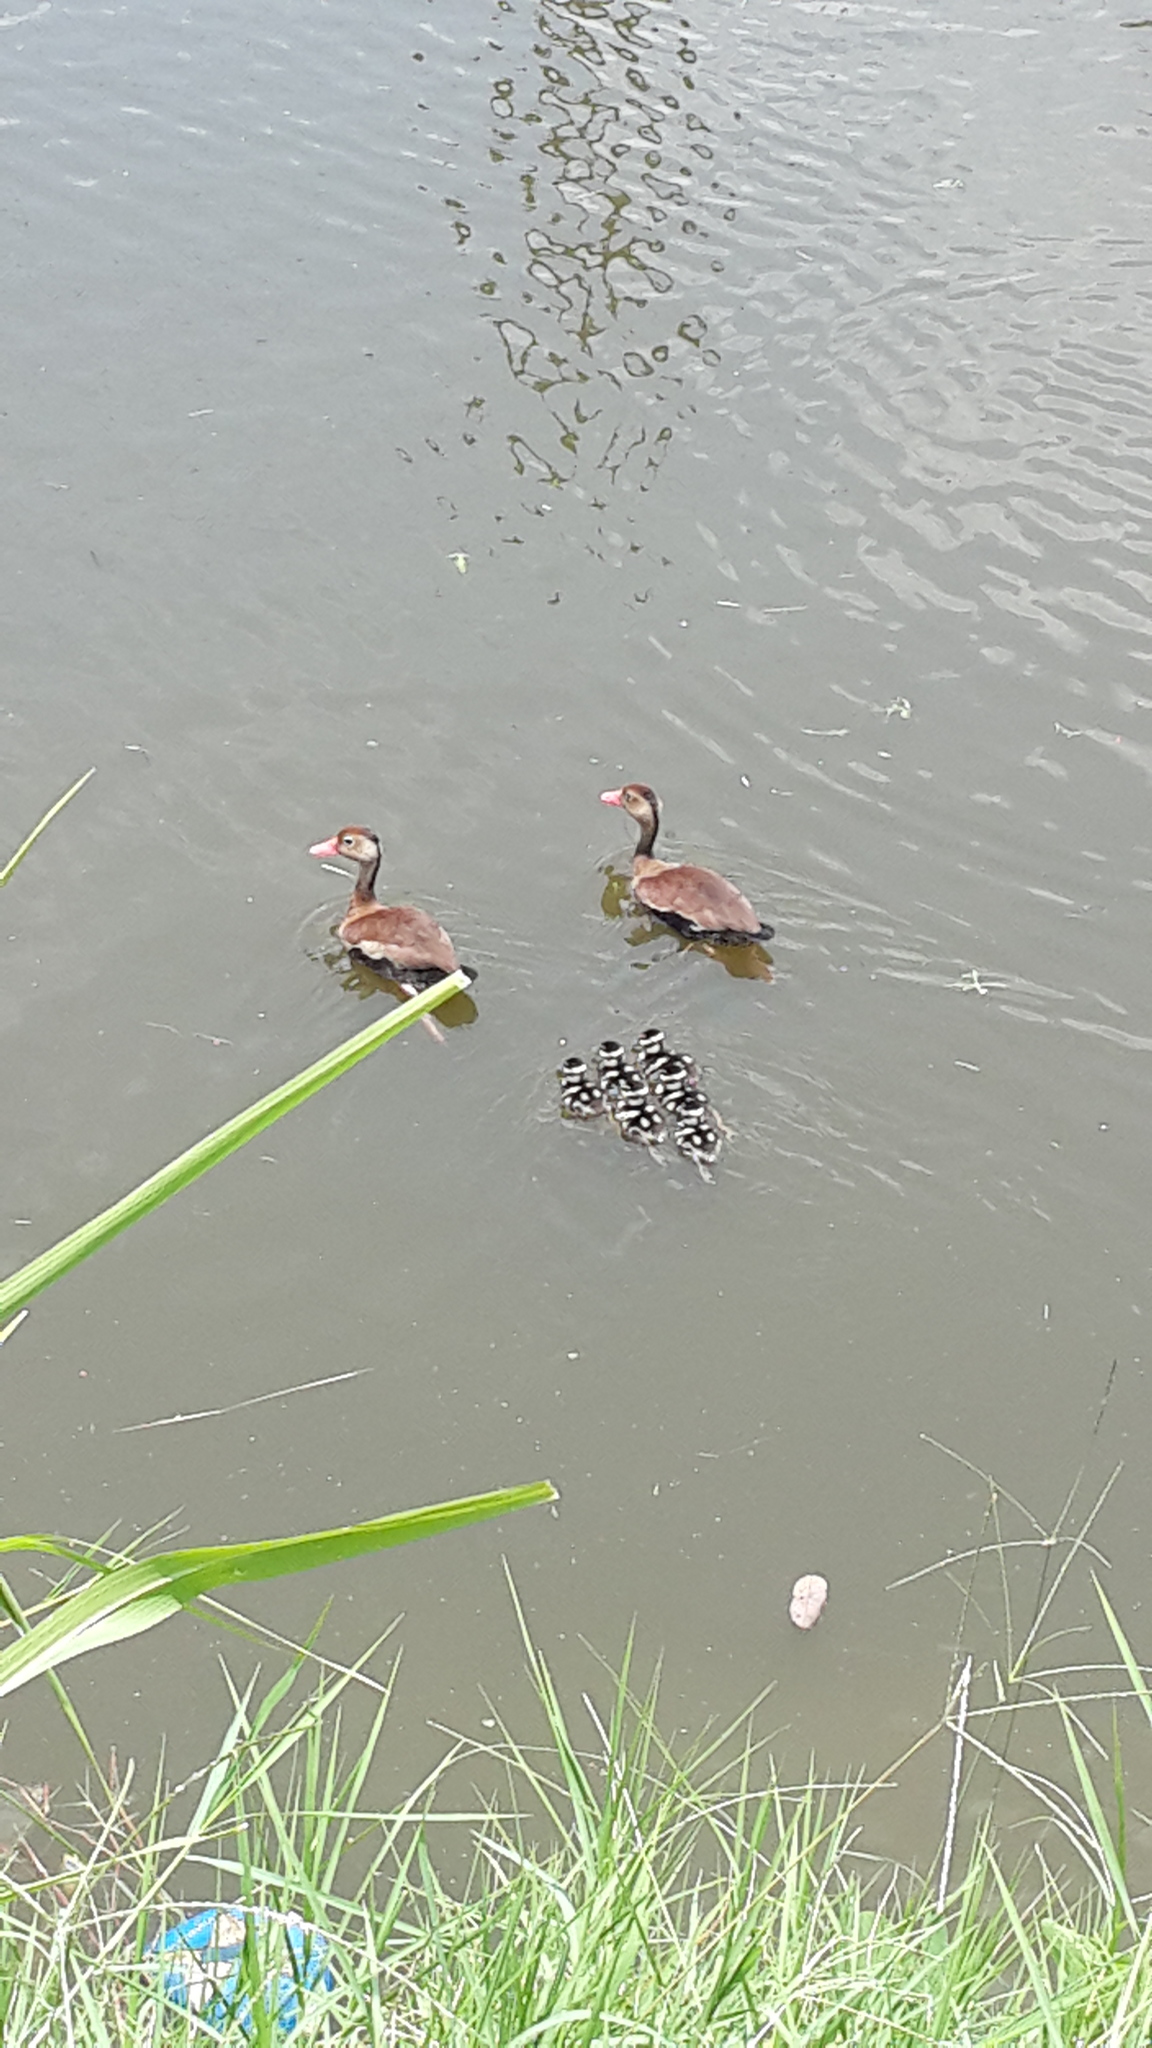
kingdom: Animalia
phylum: Chordata
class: Aves
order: Anseriformes
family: Anatidae
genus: Dendrocygna
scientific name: Dendrocygna autumnalis
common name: Black-bellied whistling duck
